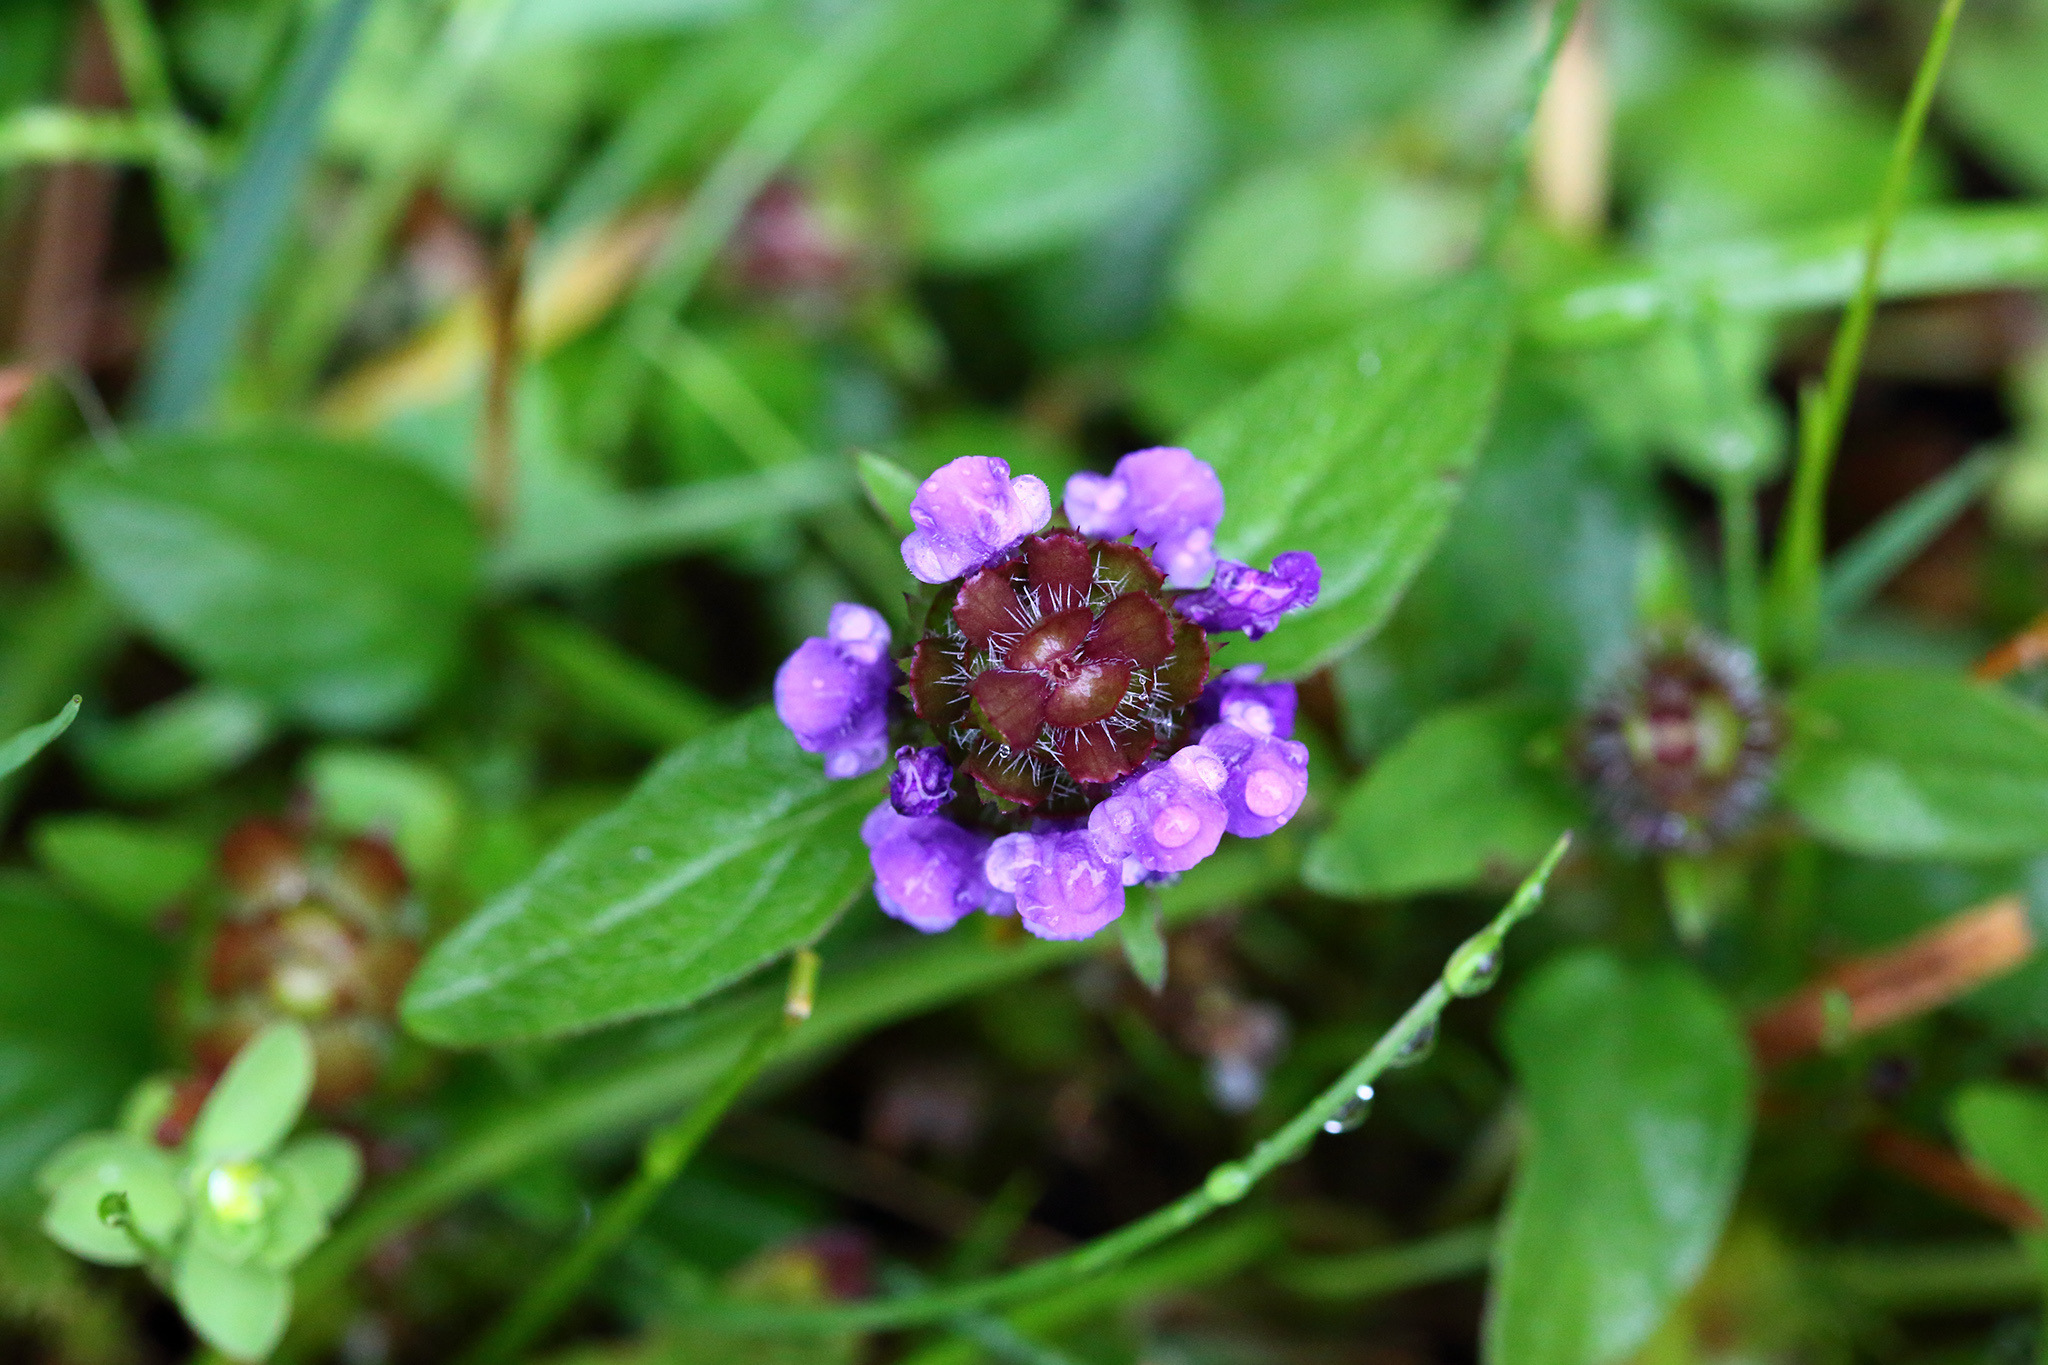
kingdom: Plantae
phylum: Tracheophyta
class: Magnoliopsida
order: Lamiales
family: Lamiaceae
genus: Prunella
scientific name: Prunella vulgaris
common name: Heal-all
